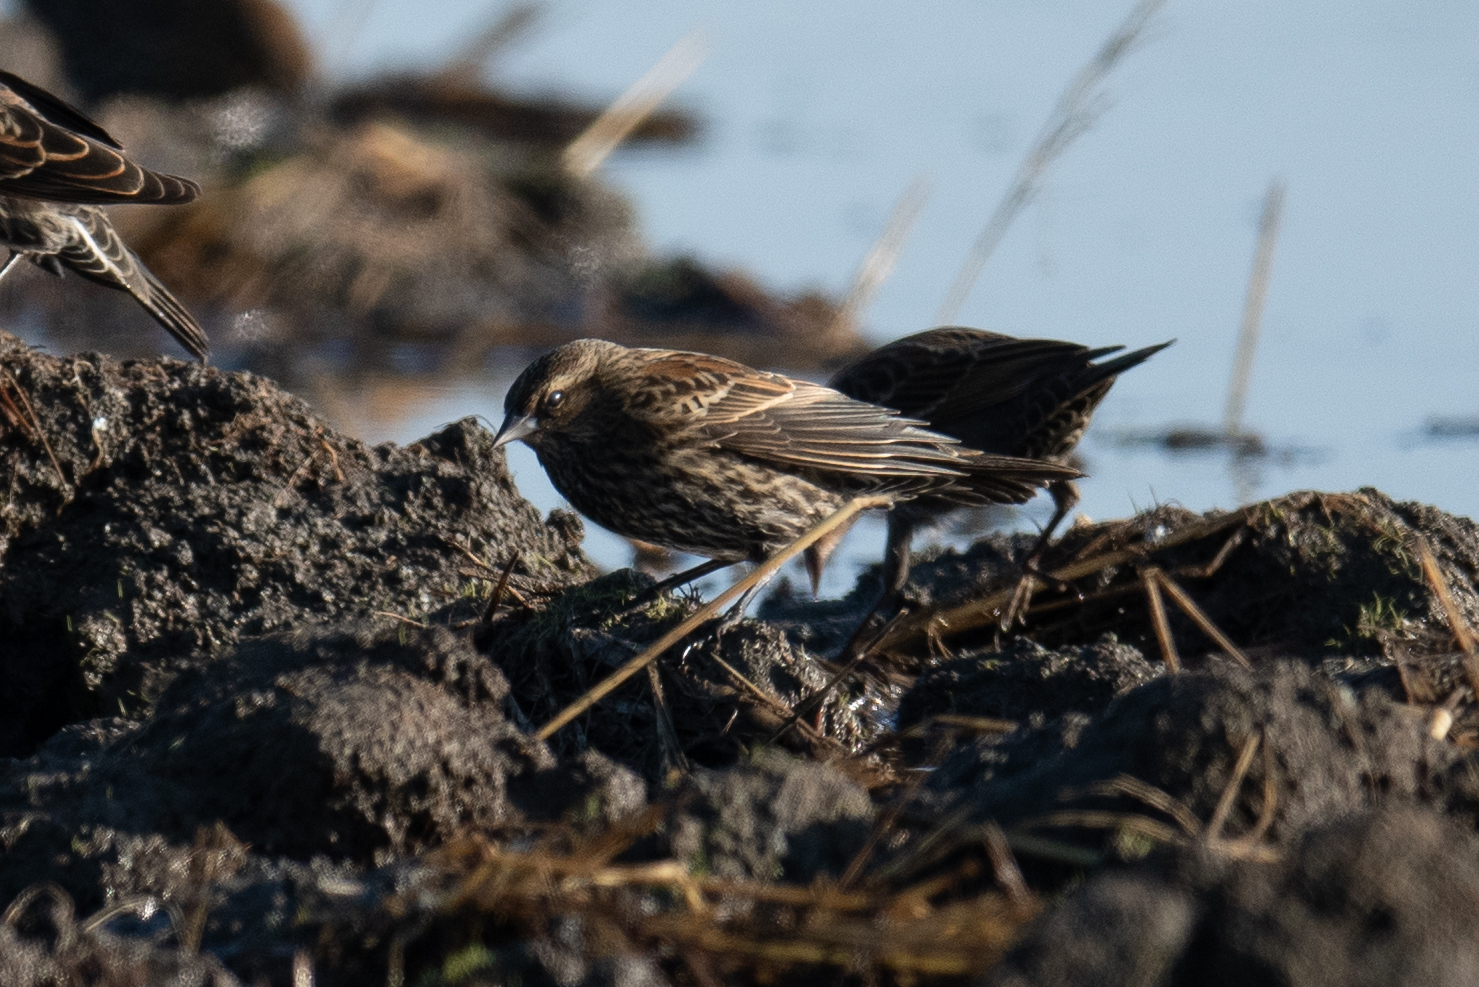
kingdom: Animalia
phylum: Chordata
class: Aves
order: Passeriformes
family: Icteridae
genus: Agelaius
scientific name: Agelaius phoeniceus
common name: Red-winged blackbird
